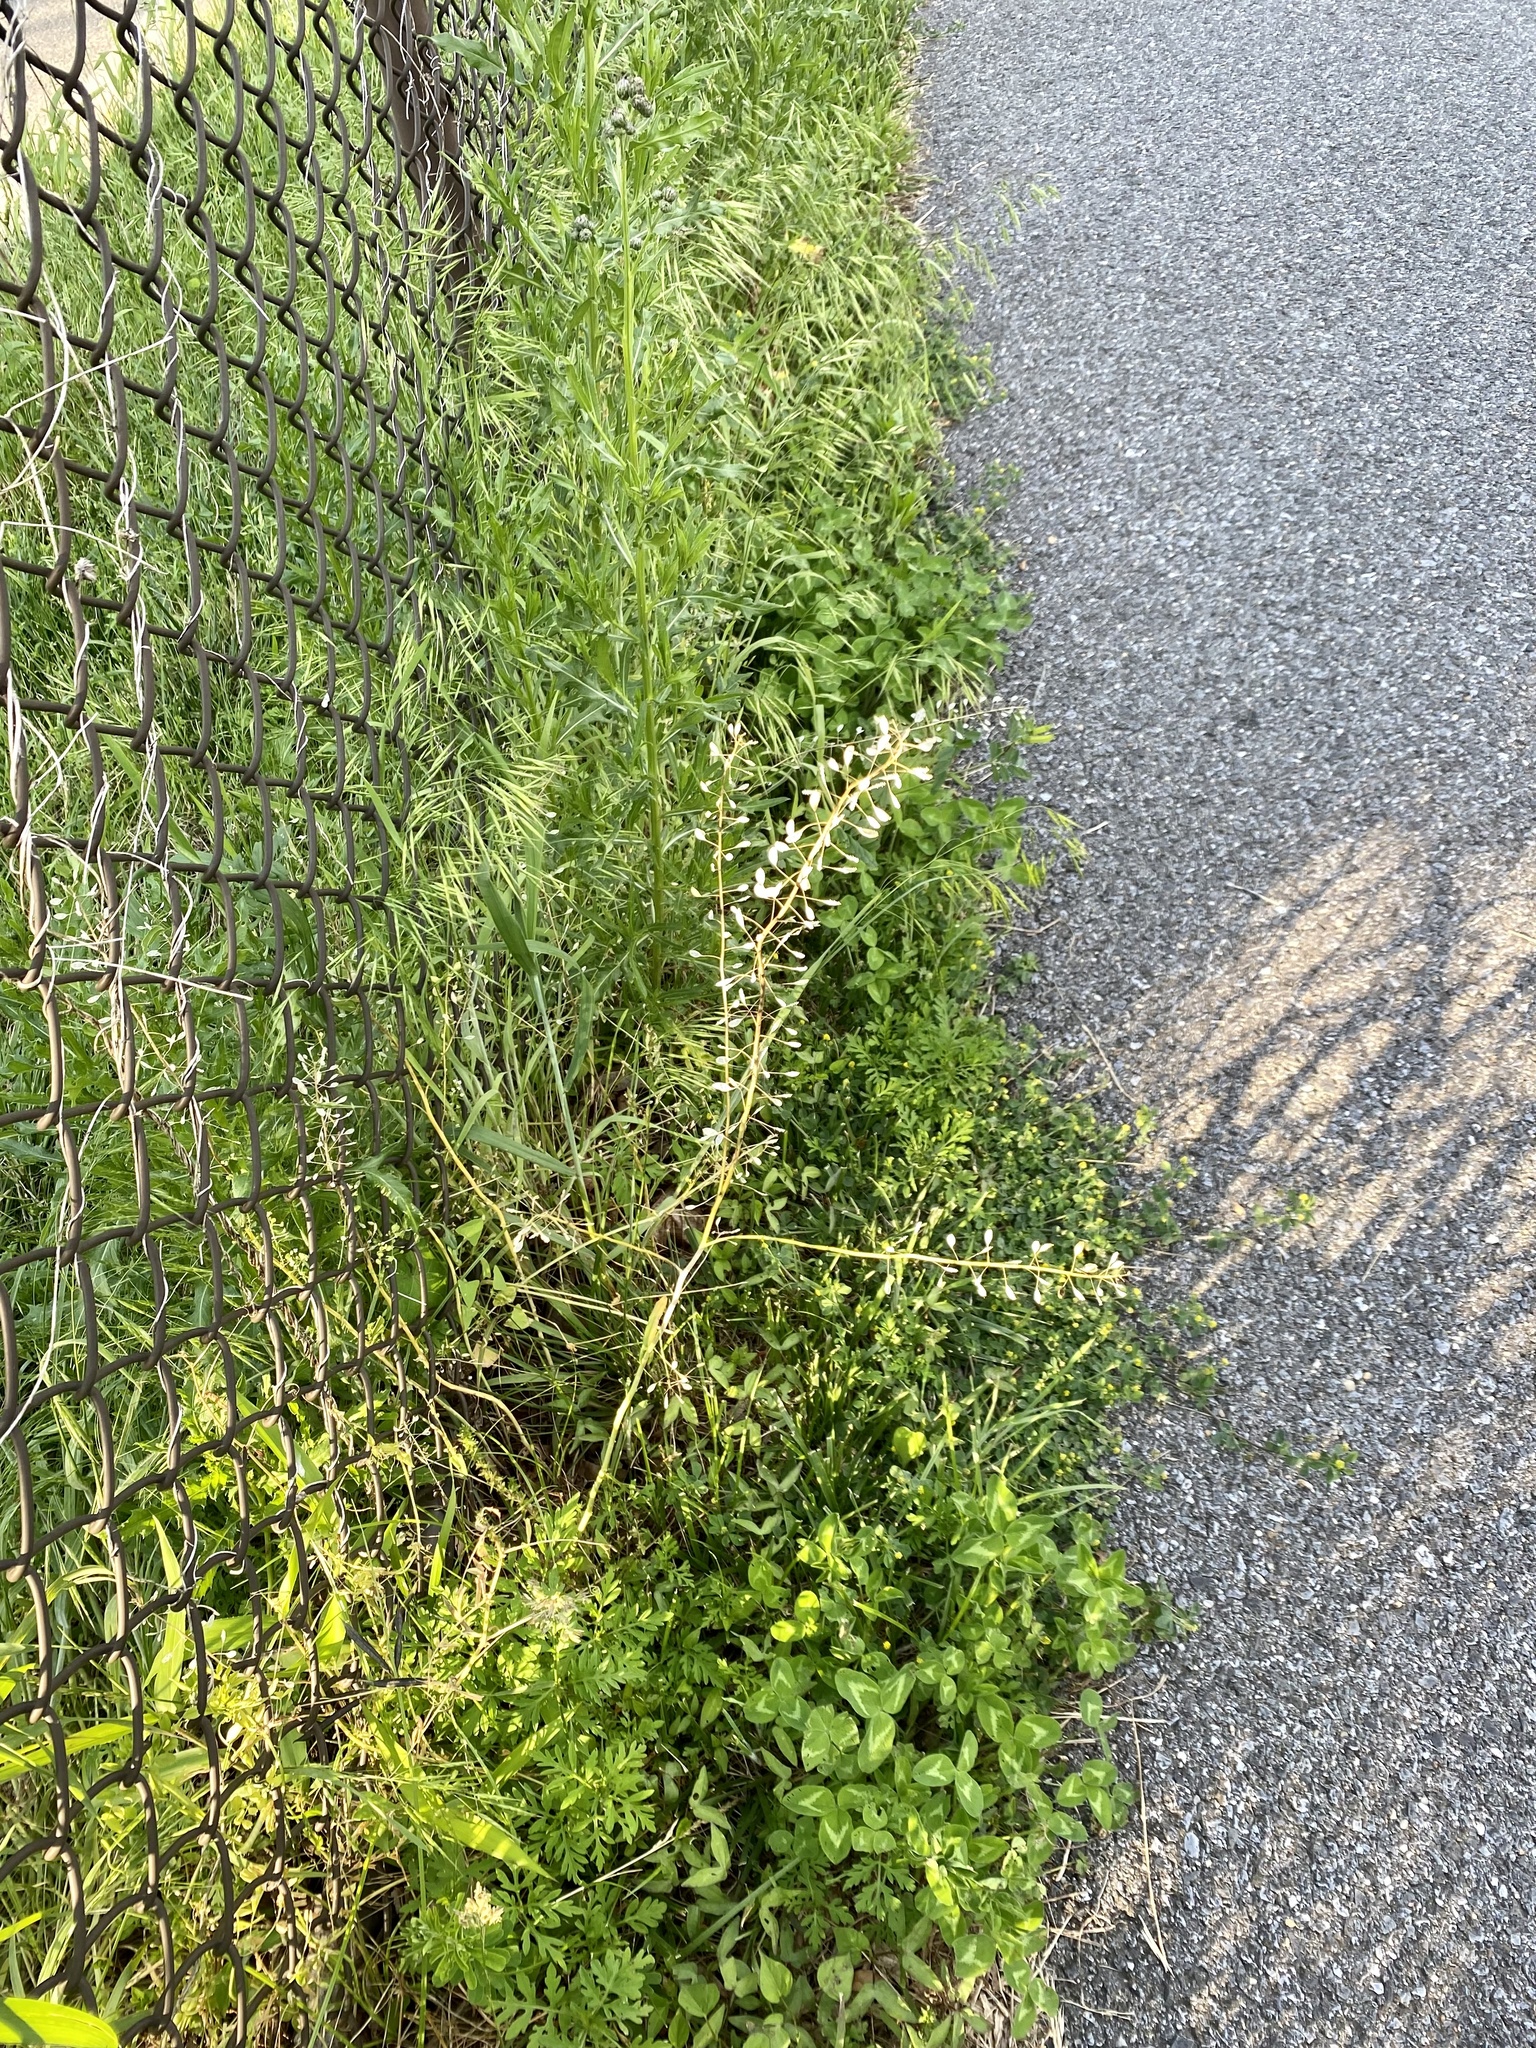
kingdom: Plantae
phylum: Tracheophyta
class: Magnoliopsida
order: Brassicales
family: Brassicaceae
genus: Mummenhoffia
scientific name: Mummenhoffia alliacea
